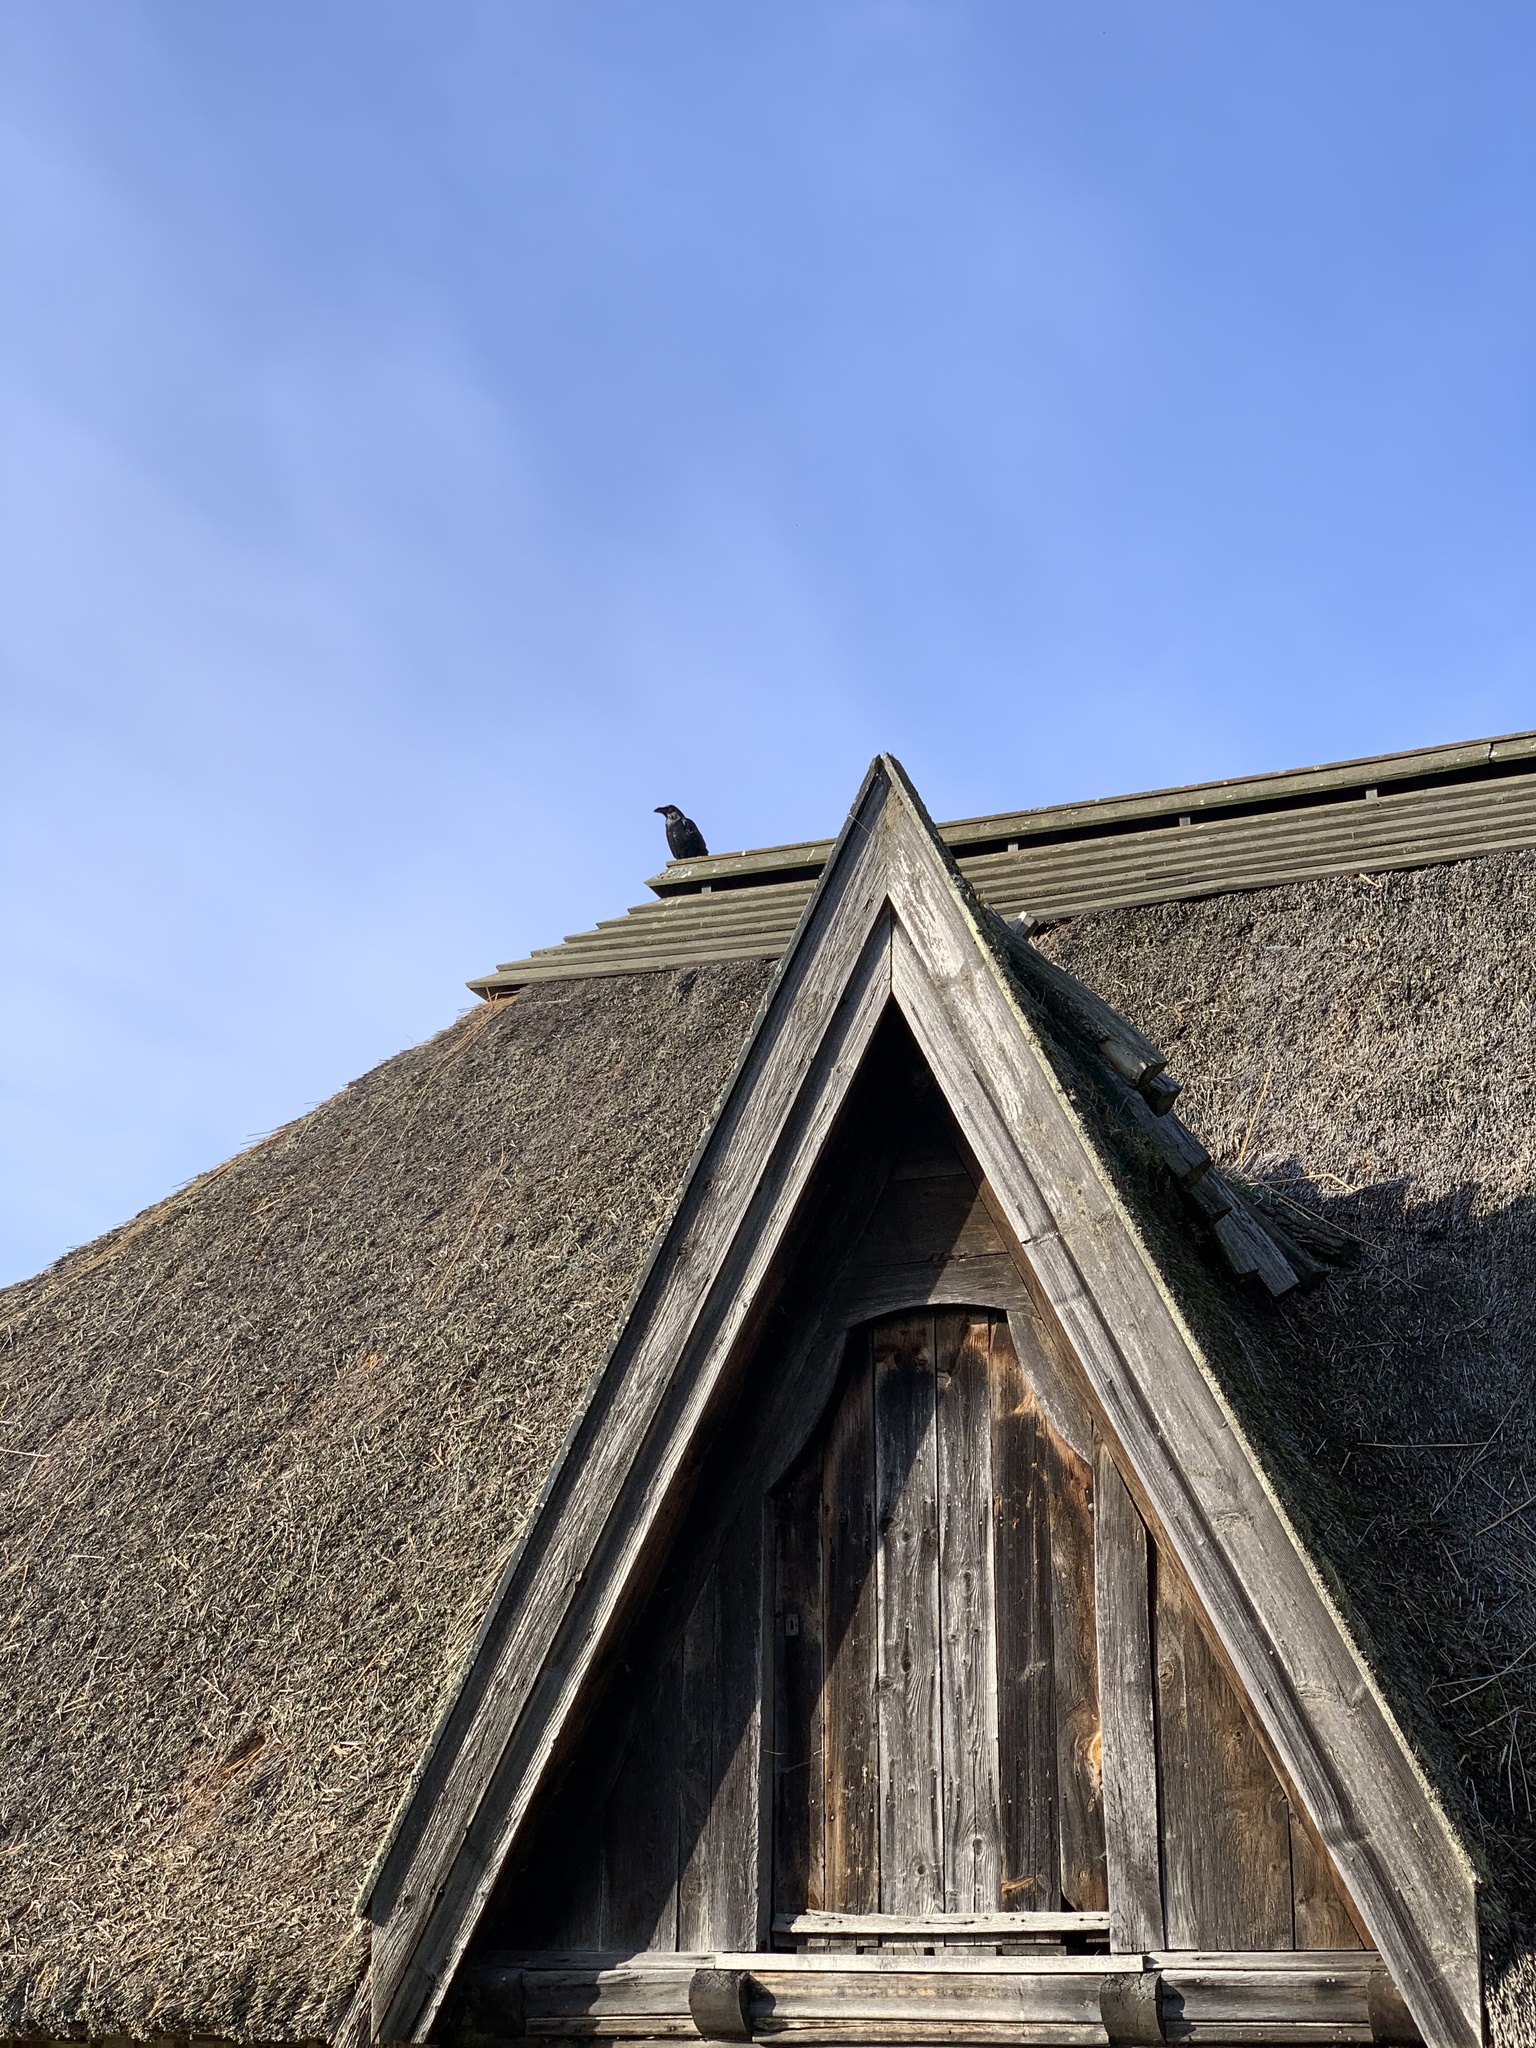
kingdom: Animalia
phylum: Chordata
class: Aves
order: Passeriformes
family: Corvidae
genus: Corvus
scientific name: Corvus corax
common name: Common raven
